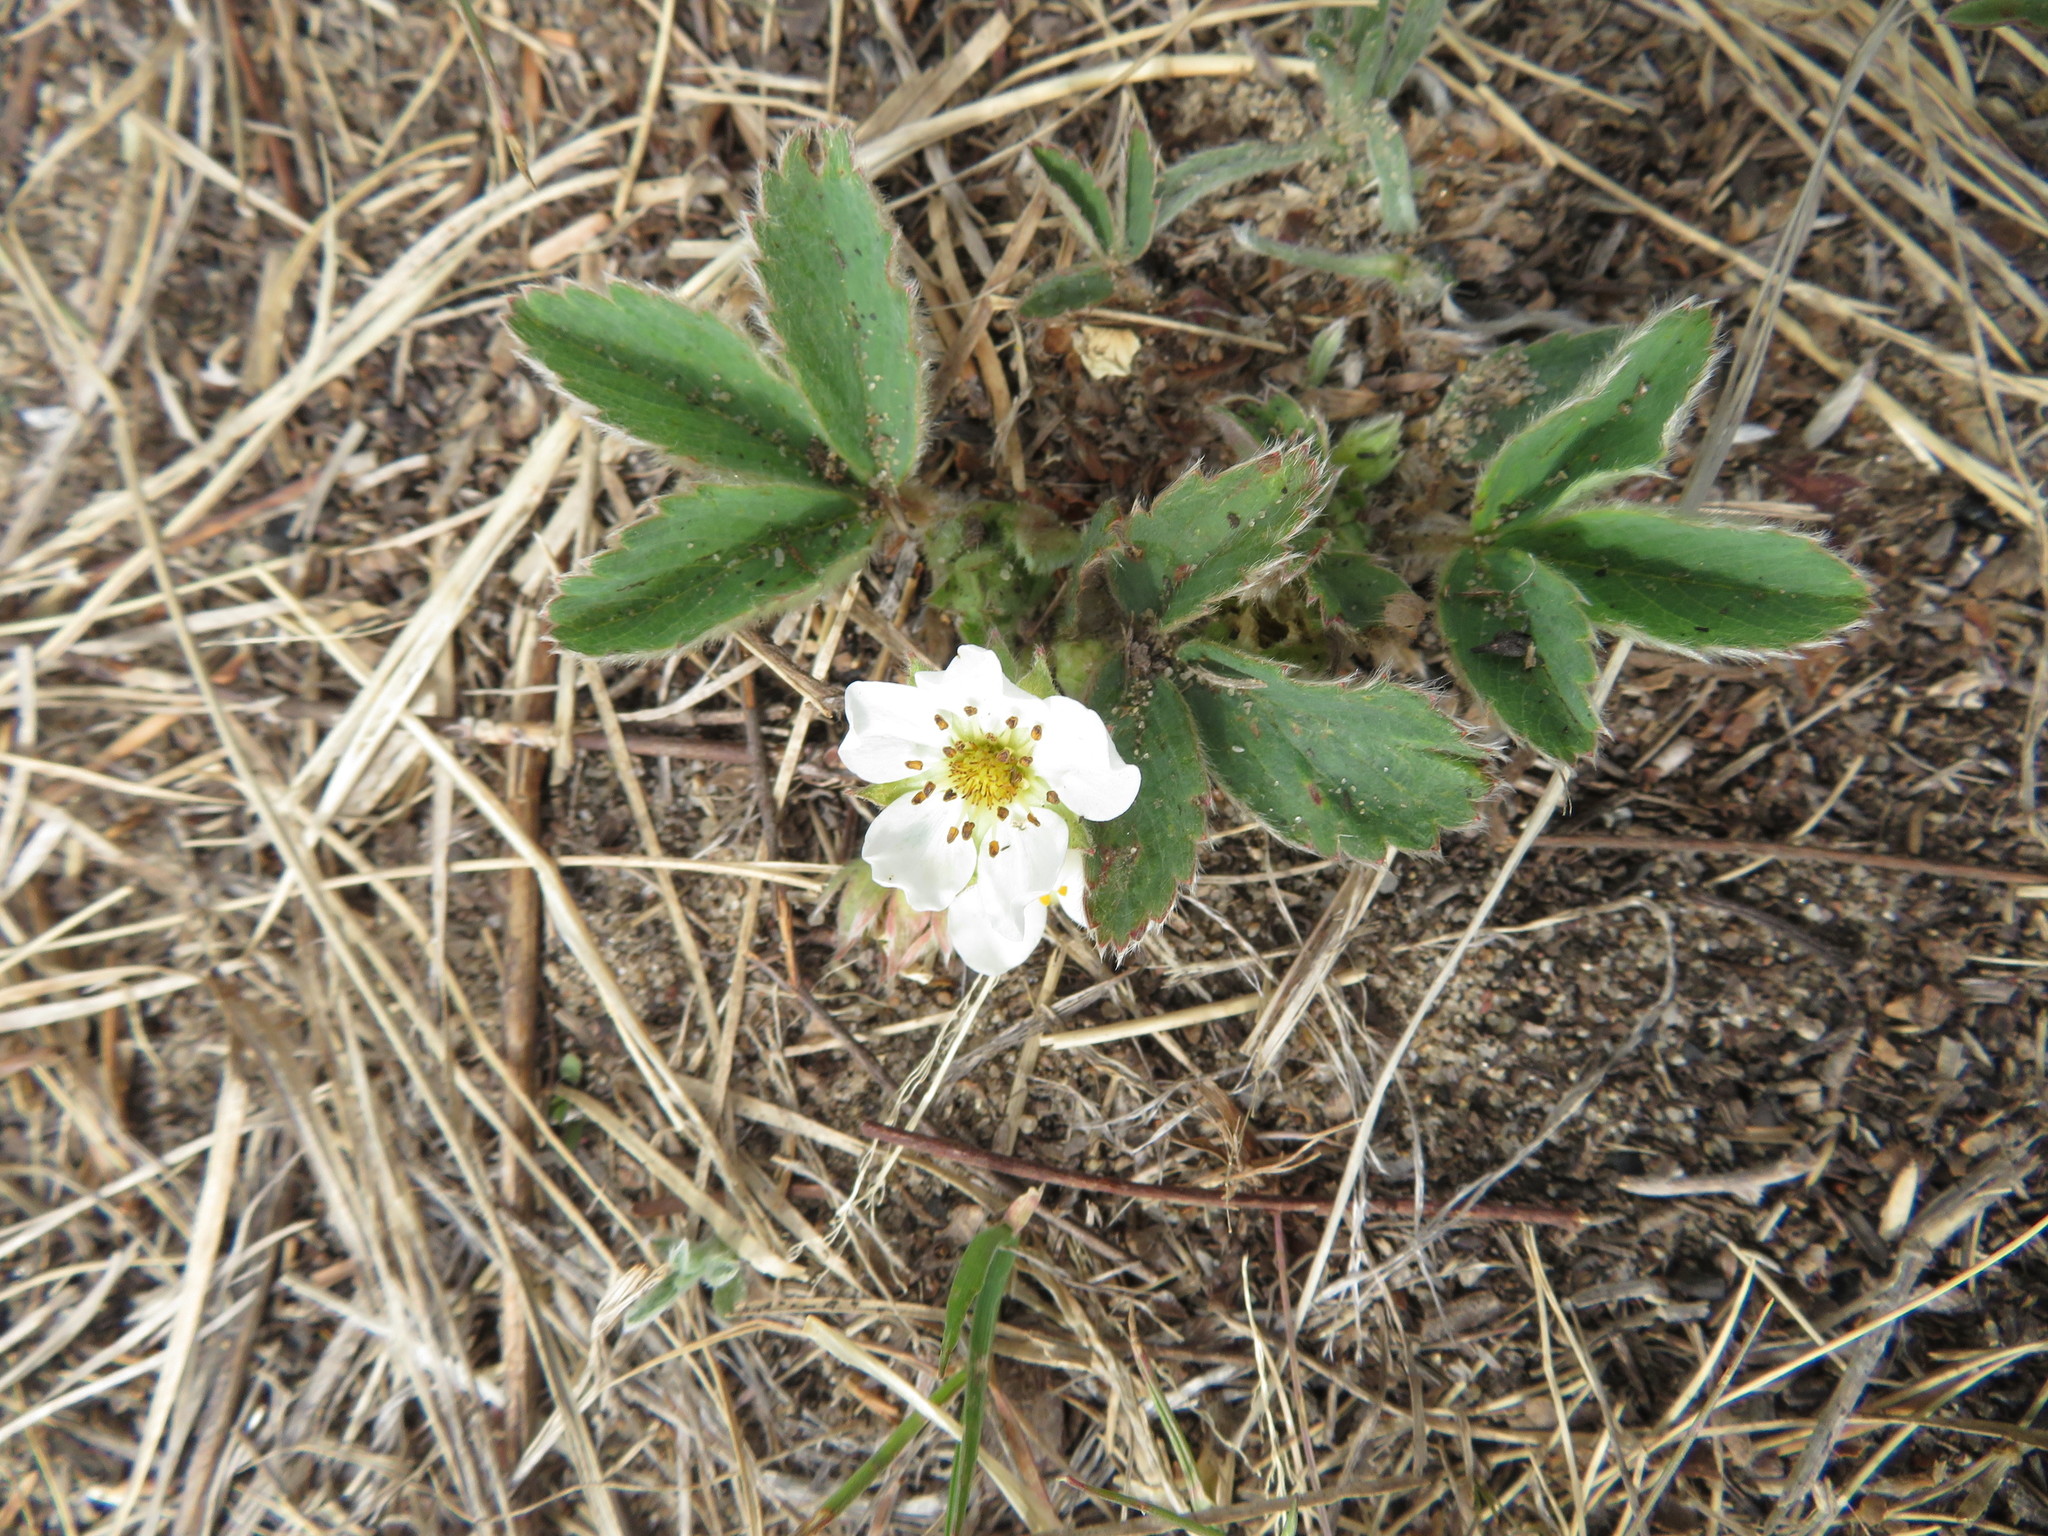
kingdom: Plantae
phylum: Tracheophyta
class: Magnoliopsida
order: Rosales
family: Rosaceae
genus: Fragaria
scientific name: Fragaria virginiana
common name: Thickleaved wild strawberry
